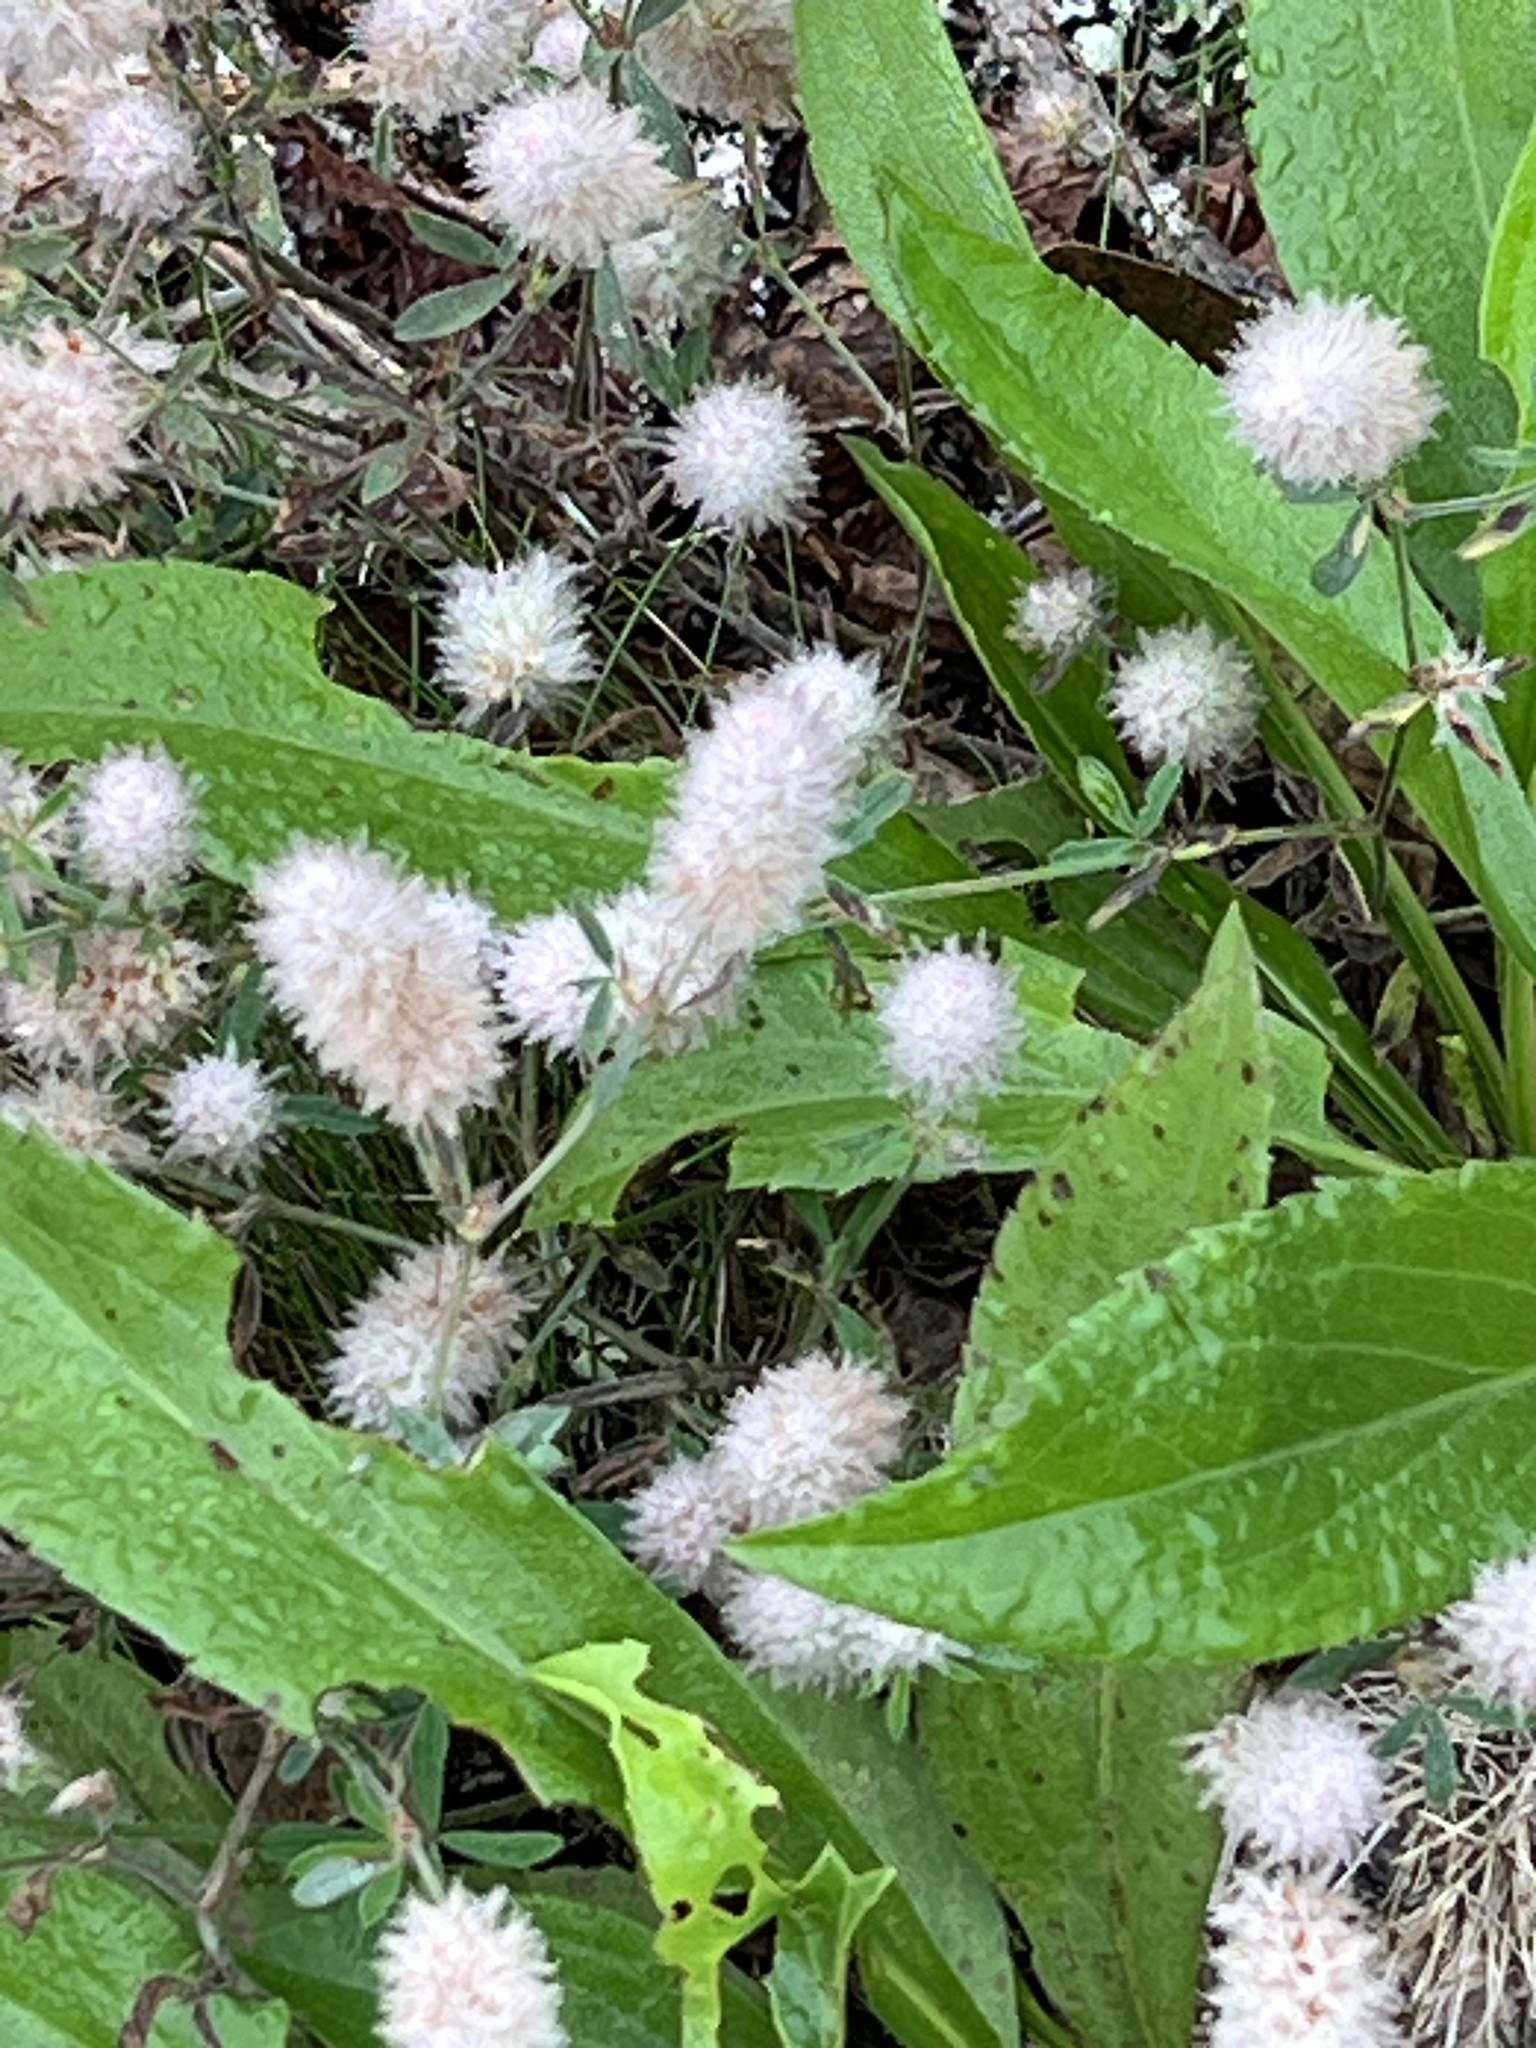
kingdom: Plantae
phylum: Tracheophyta
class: Magnoliopsida
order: Fabales
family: Fabaceae
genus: Trifolium
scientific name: Trifolium arvense
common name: Hare's-foot clover
